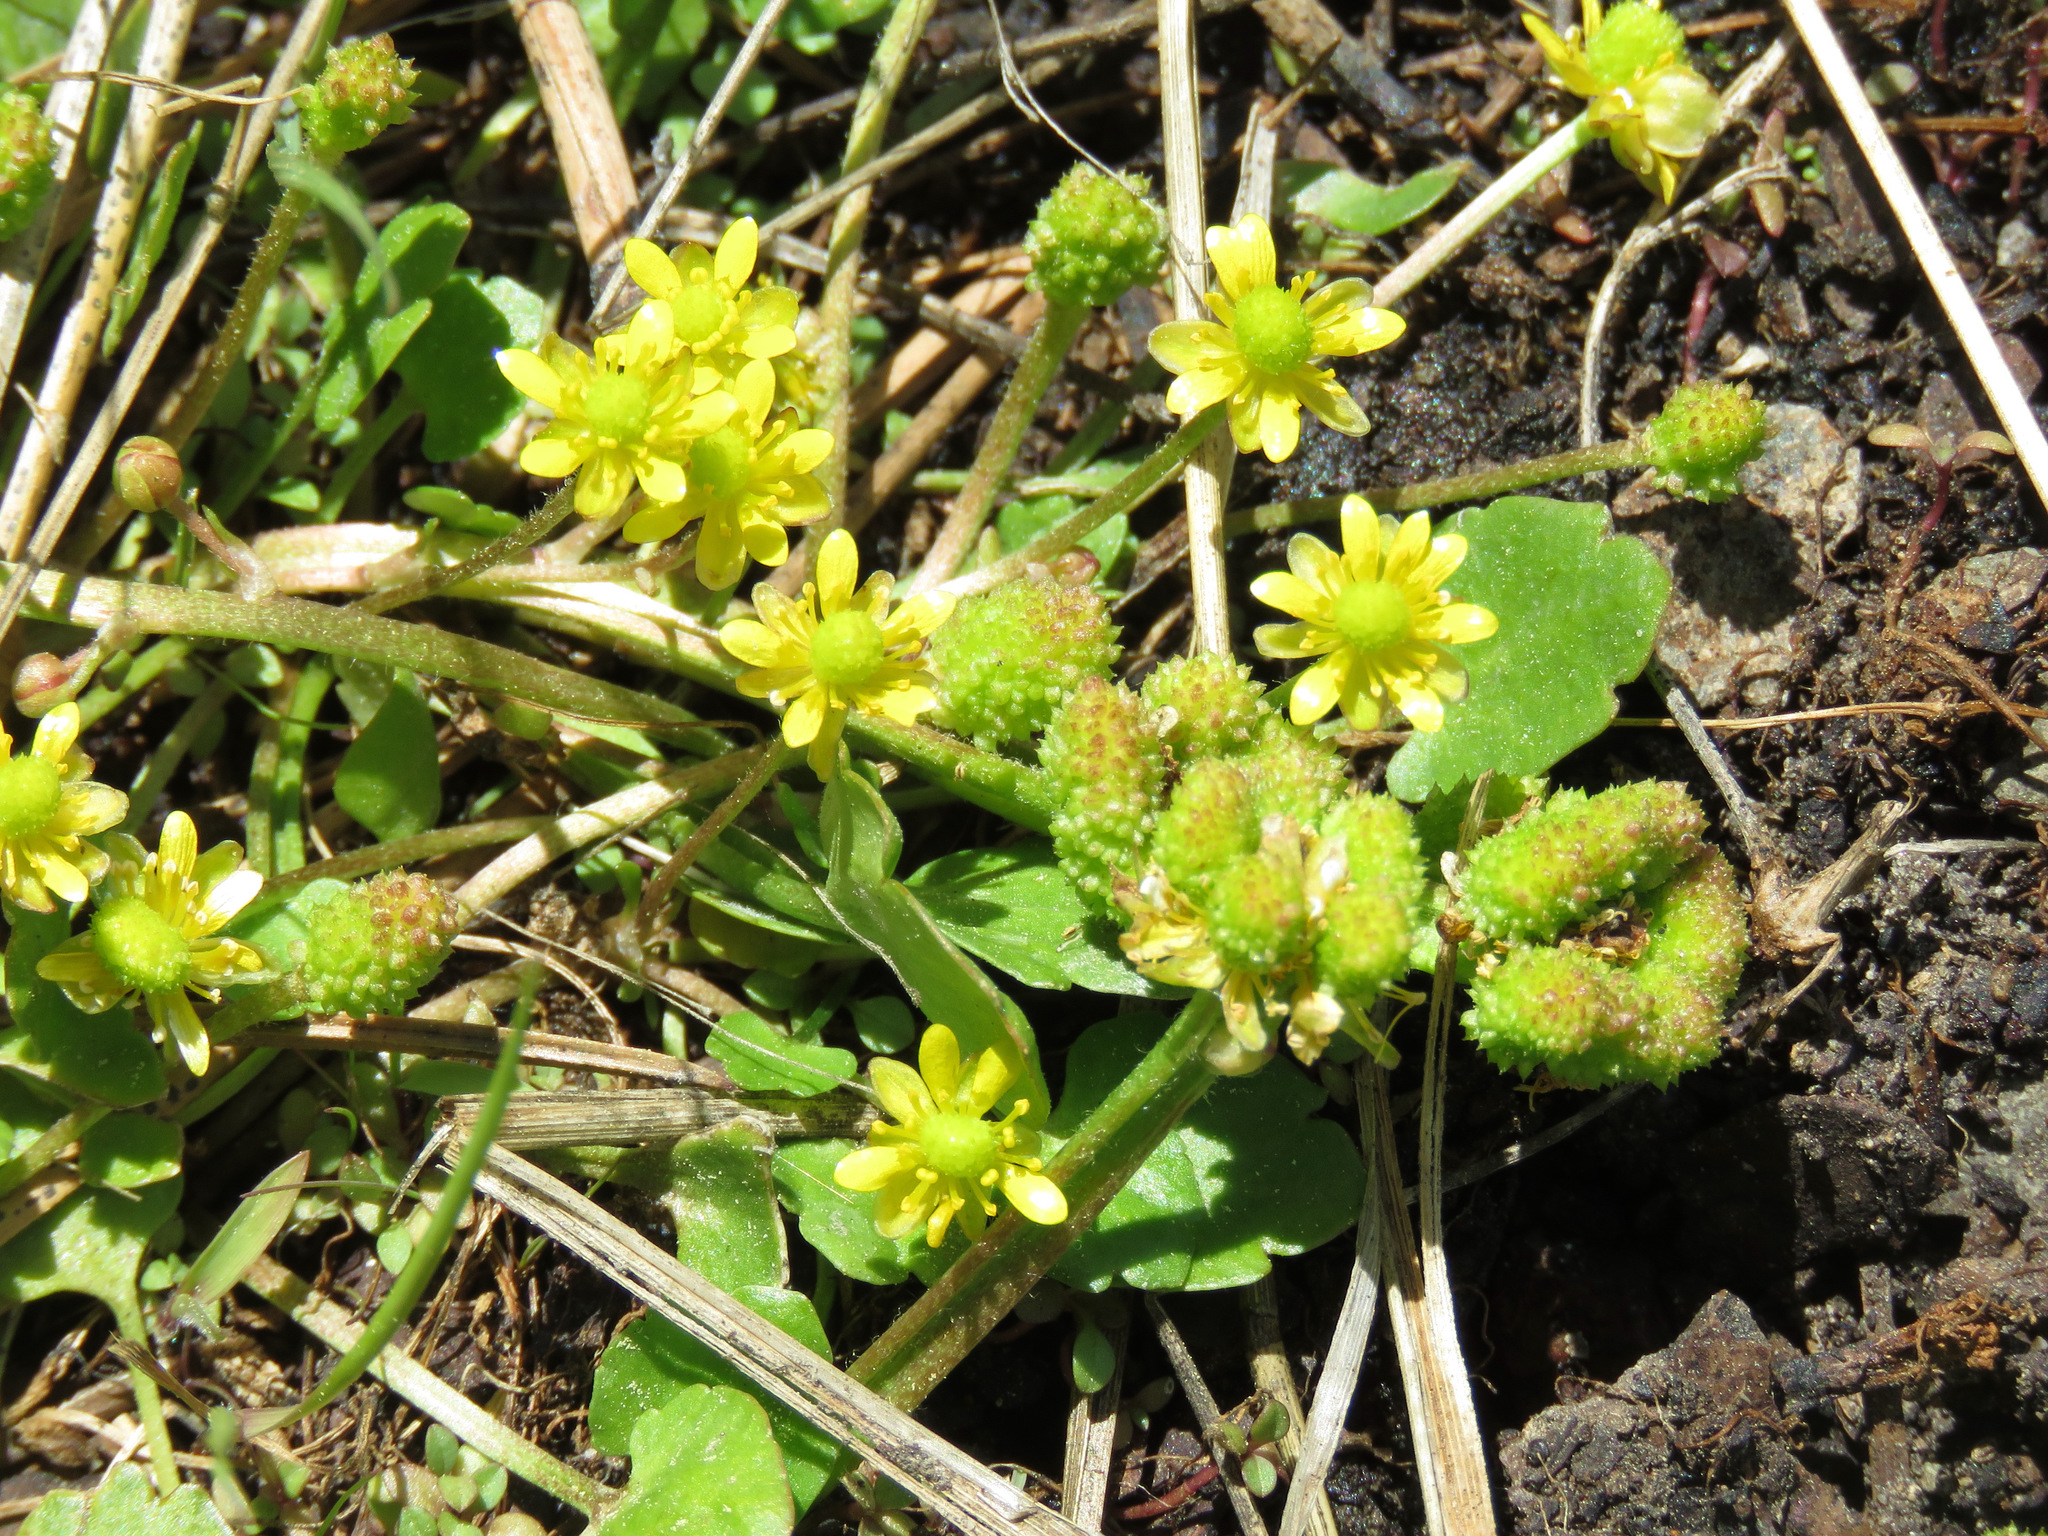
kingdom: Plantae
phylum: Tracheophyta
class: Magnoliopsida
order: Ranunculales
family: Ranunculaceae
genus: Halerpestes
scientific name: Halerpestes cymbalaria
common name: Seaside crowfoot
